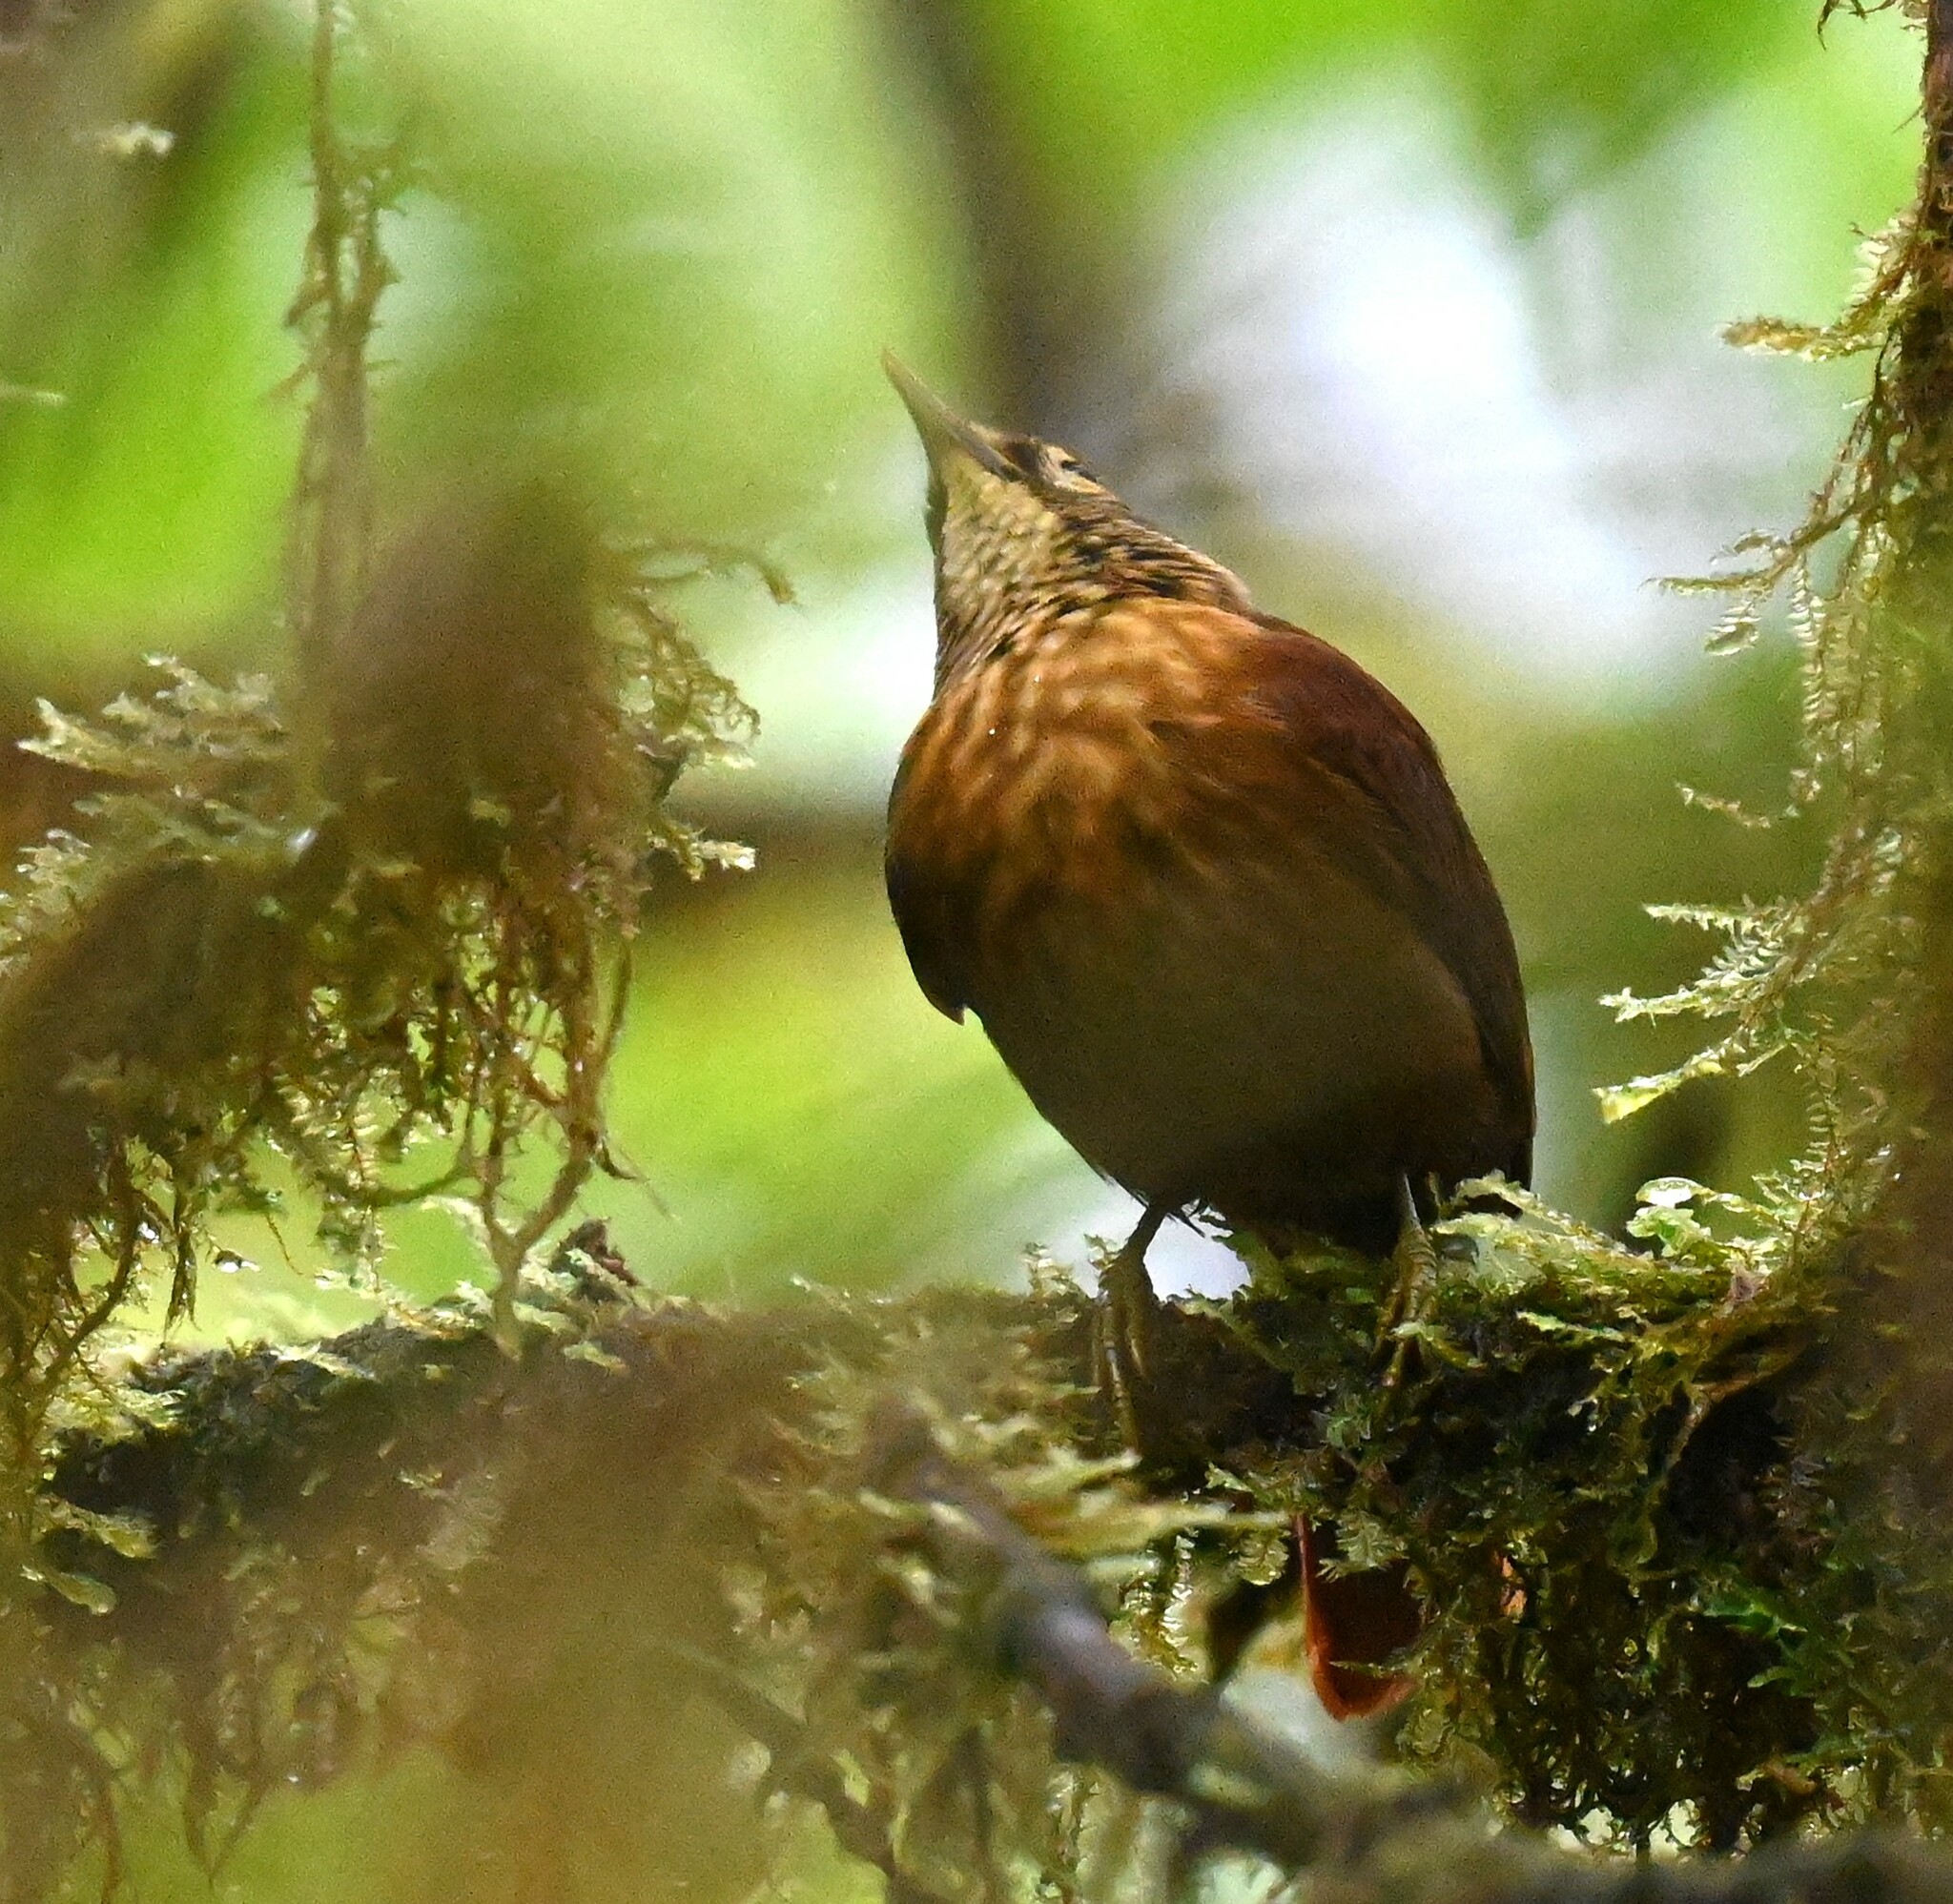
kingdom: Animalia
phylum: Chordata
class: Aves
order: Passeriformes
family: Furnariidae
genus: Anabacerthia
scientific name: Anabacerthia variegaticeps
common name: Scaly-throated foliage-gleaner
